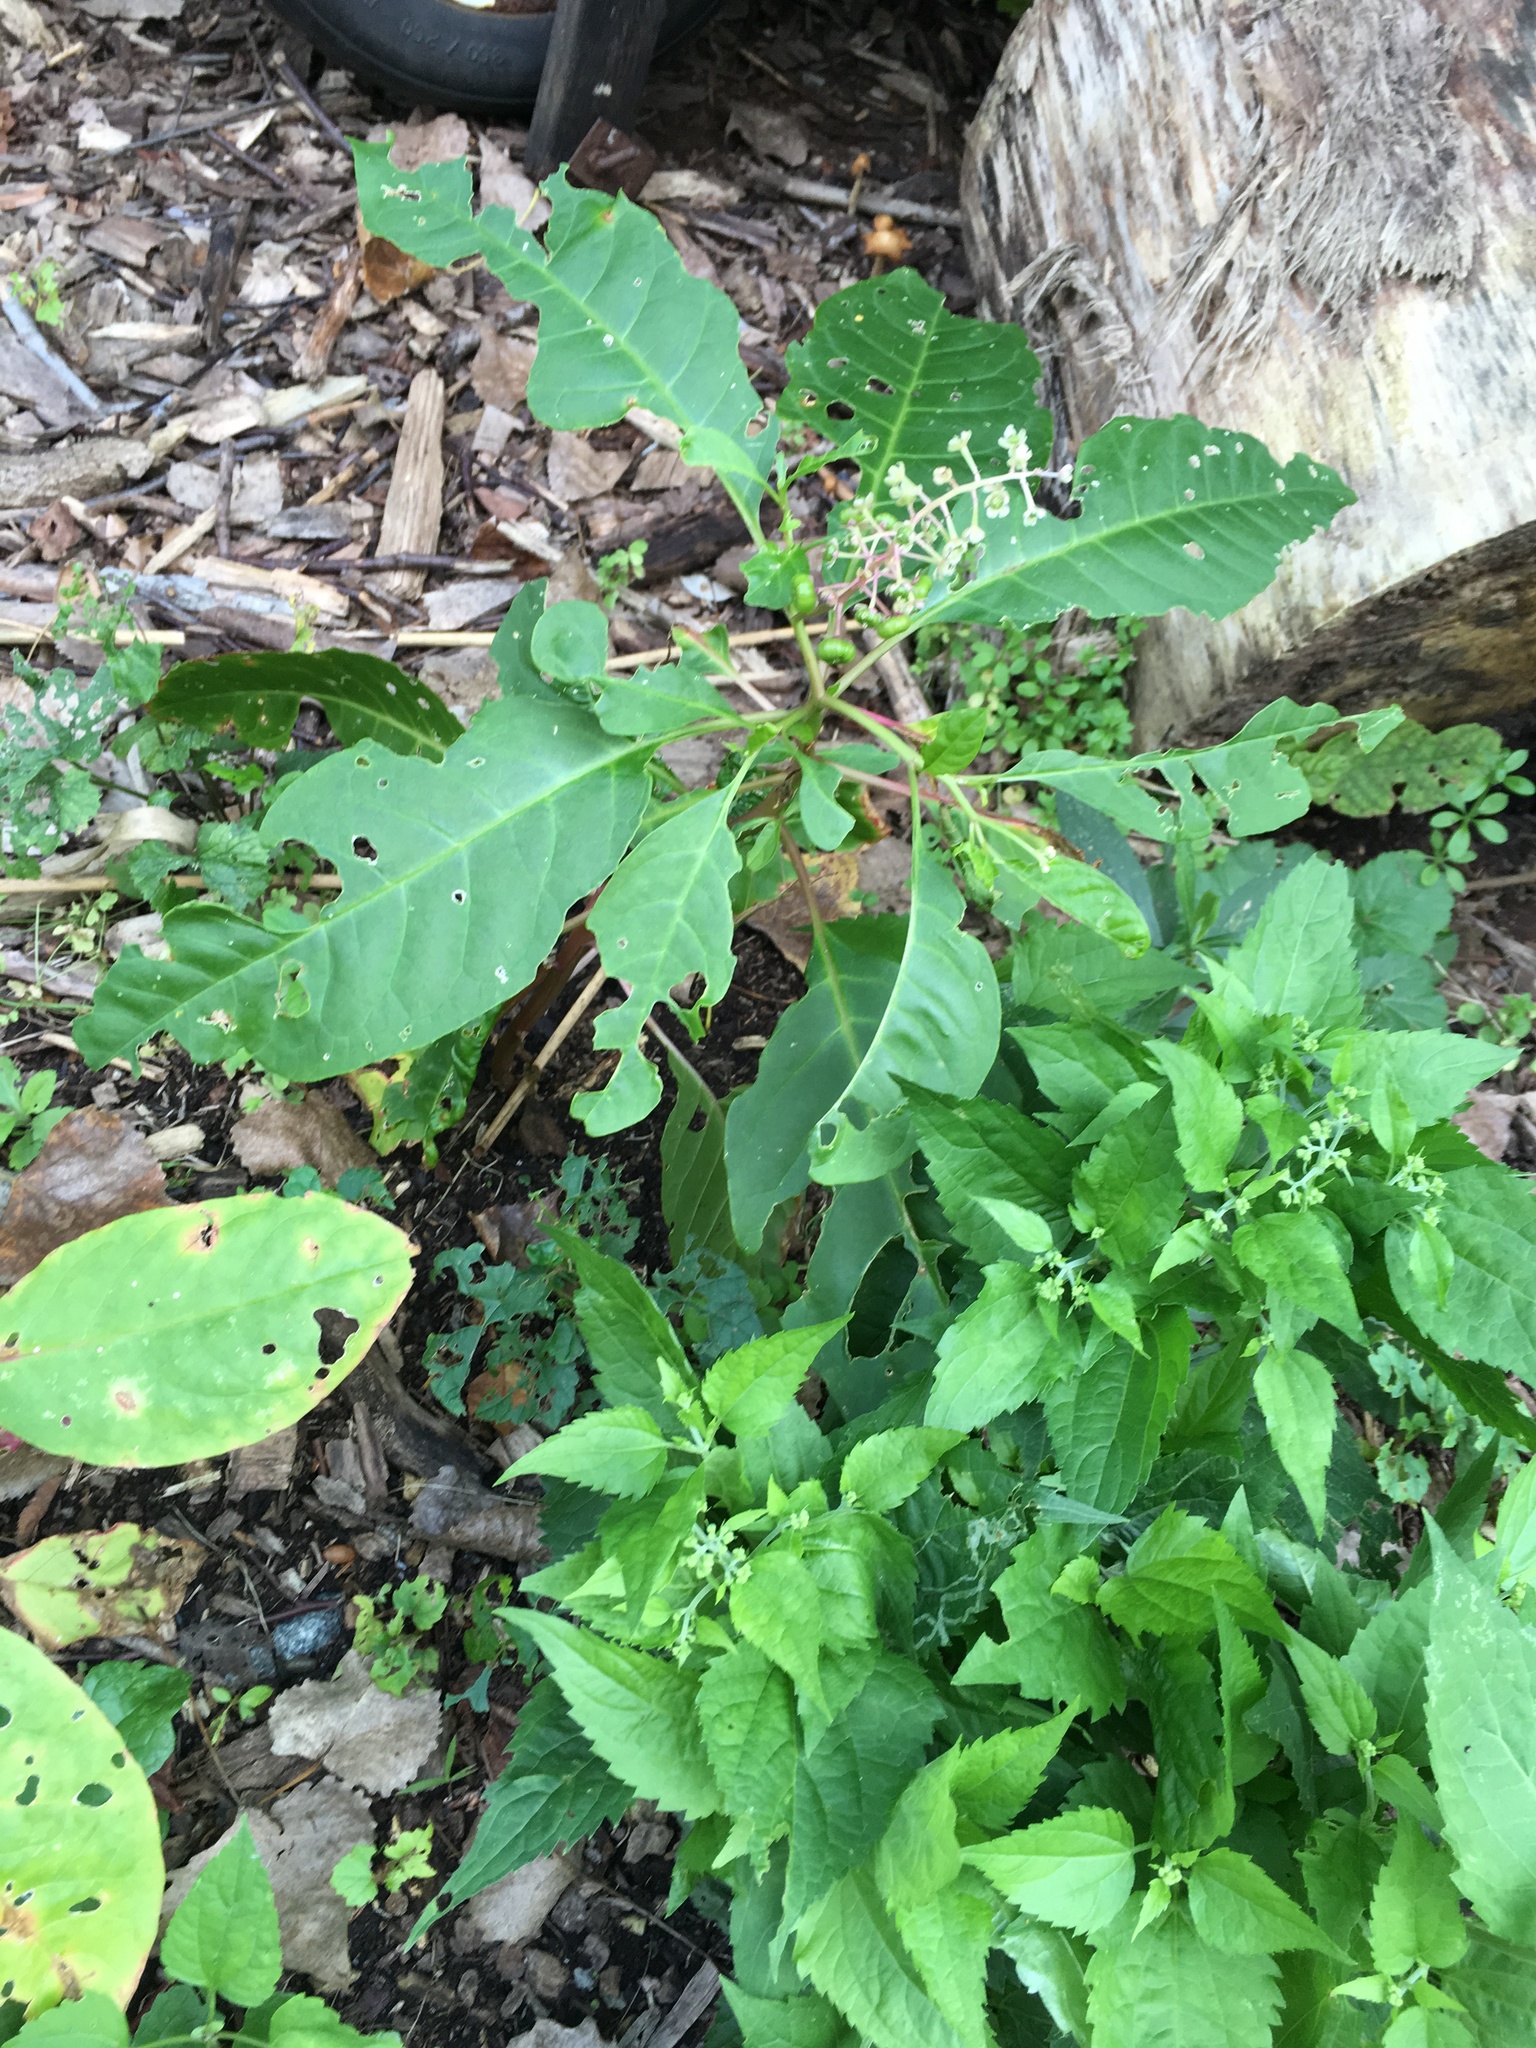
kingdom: Plantae
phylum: Tracheophyta
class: Magnoliopsida
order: Caryophyllales
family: Phytolaccaceae
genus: Phytolacca
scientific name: Phytolacca americana
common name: American pokeweed
